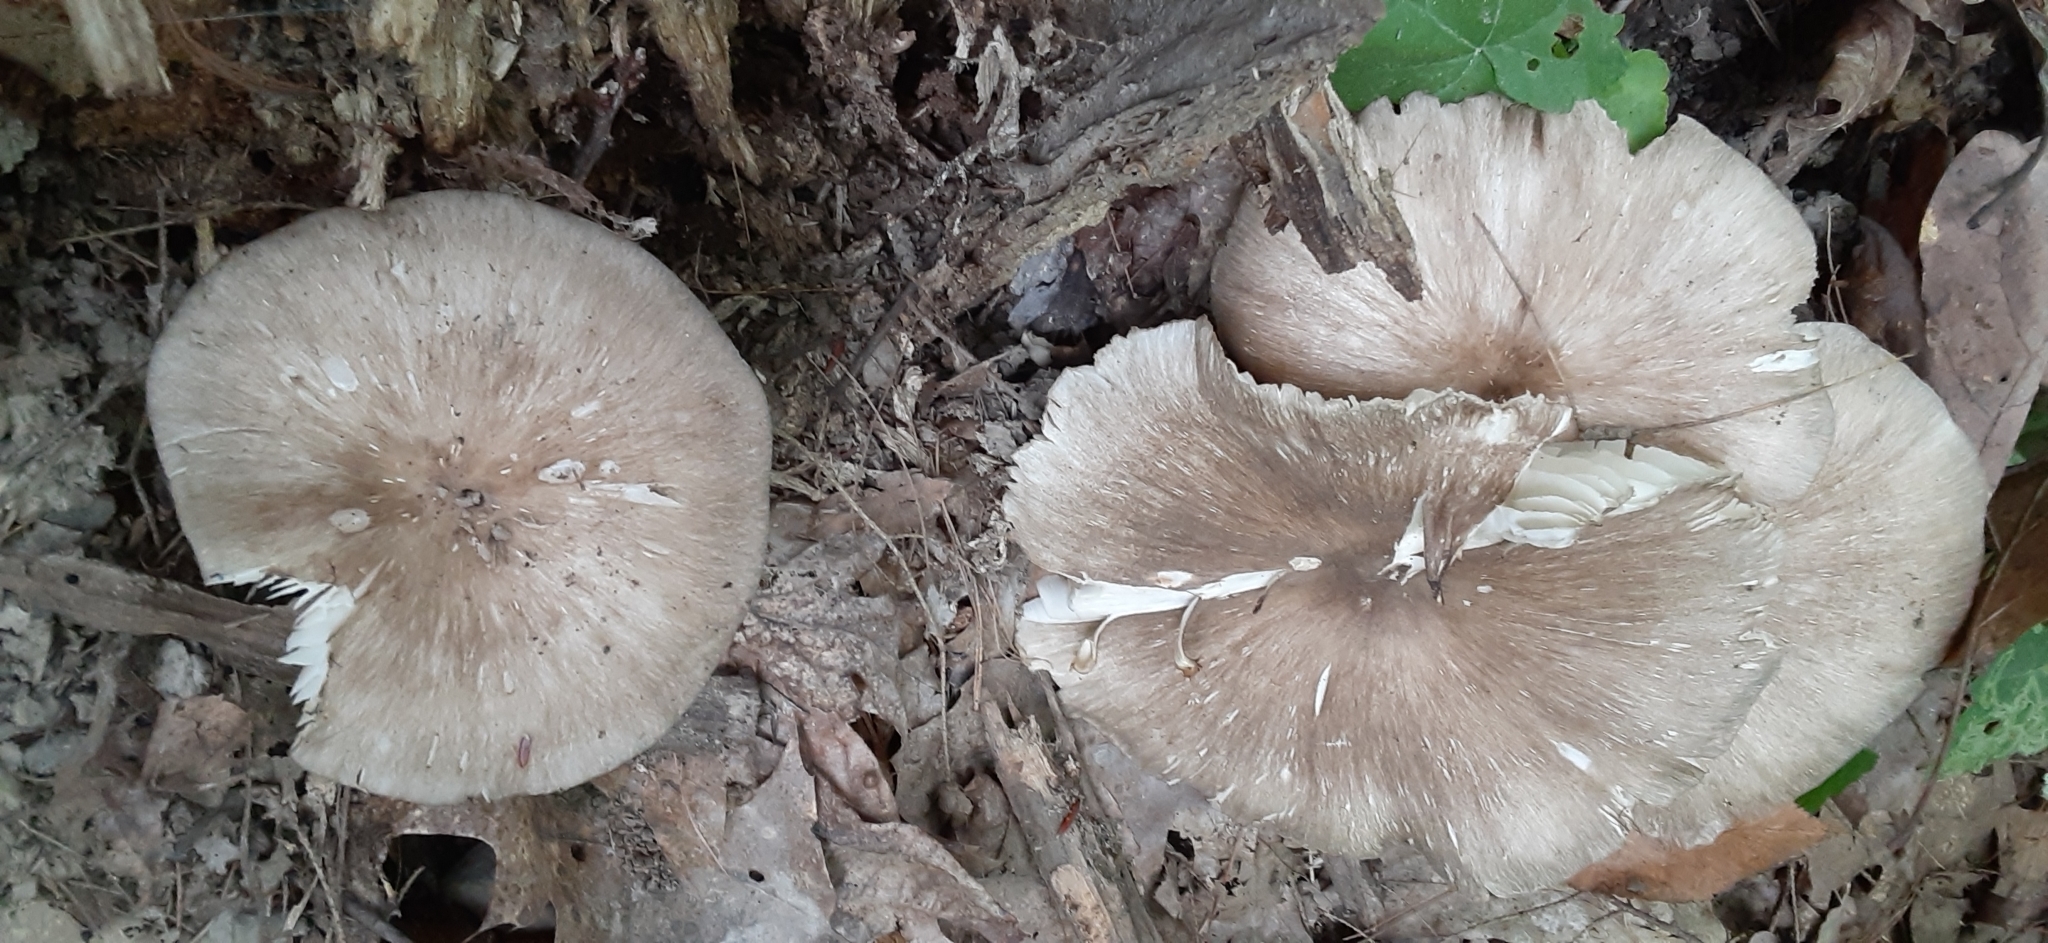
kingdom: Fungi
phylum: Basidiomycota
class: Agaricomycetes
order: Agaricales
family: Tricholomataceae
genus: Megacollybia
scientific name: Megacollybia rodmanii
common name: Eastern american platterful mushroom
